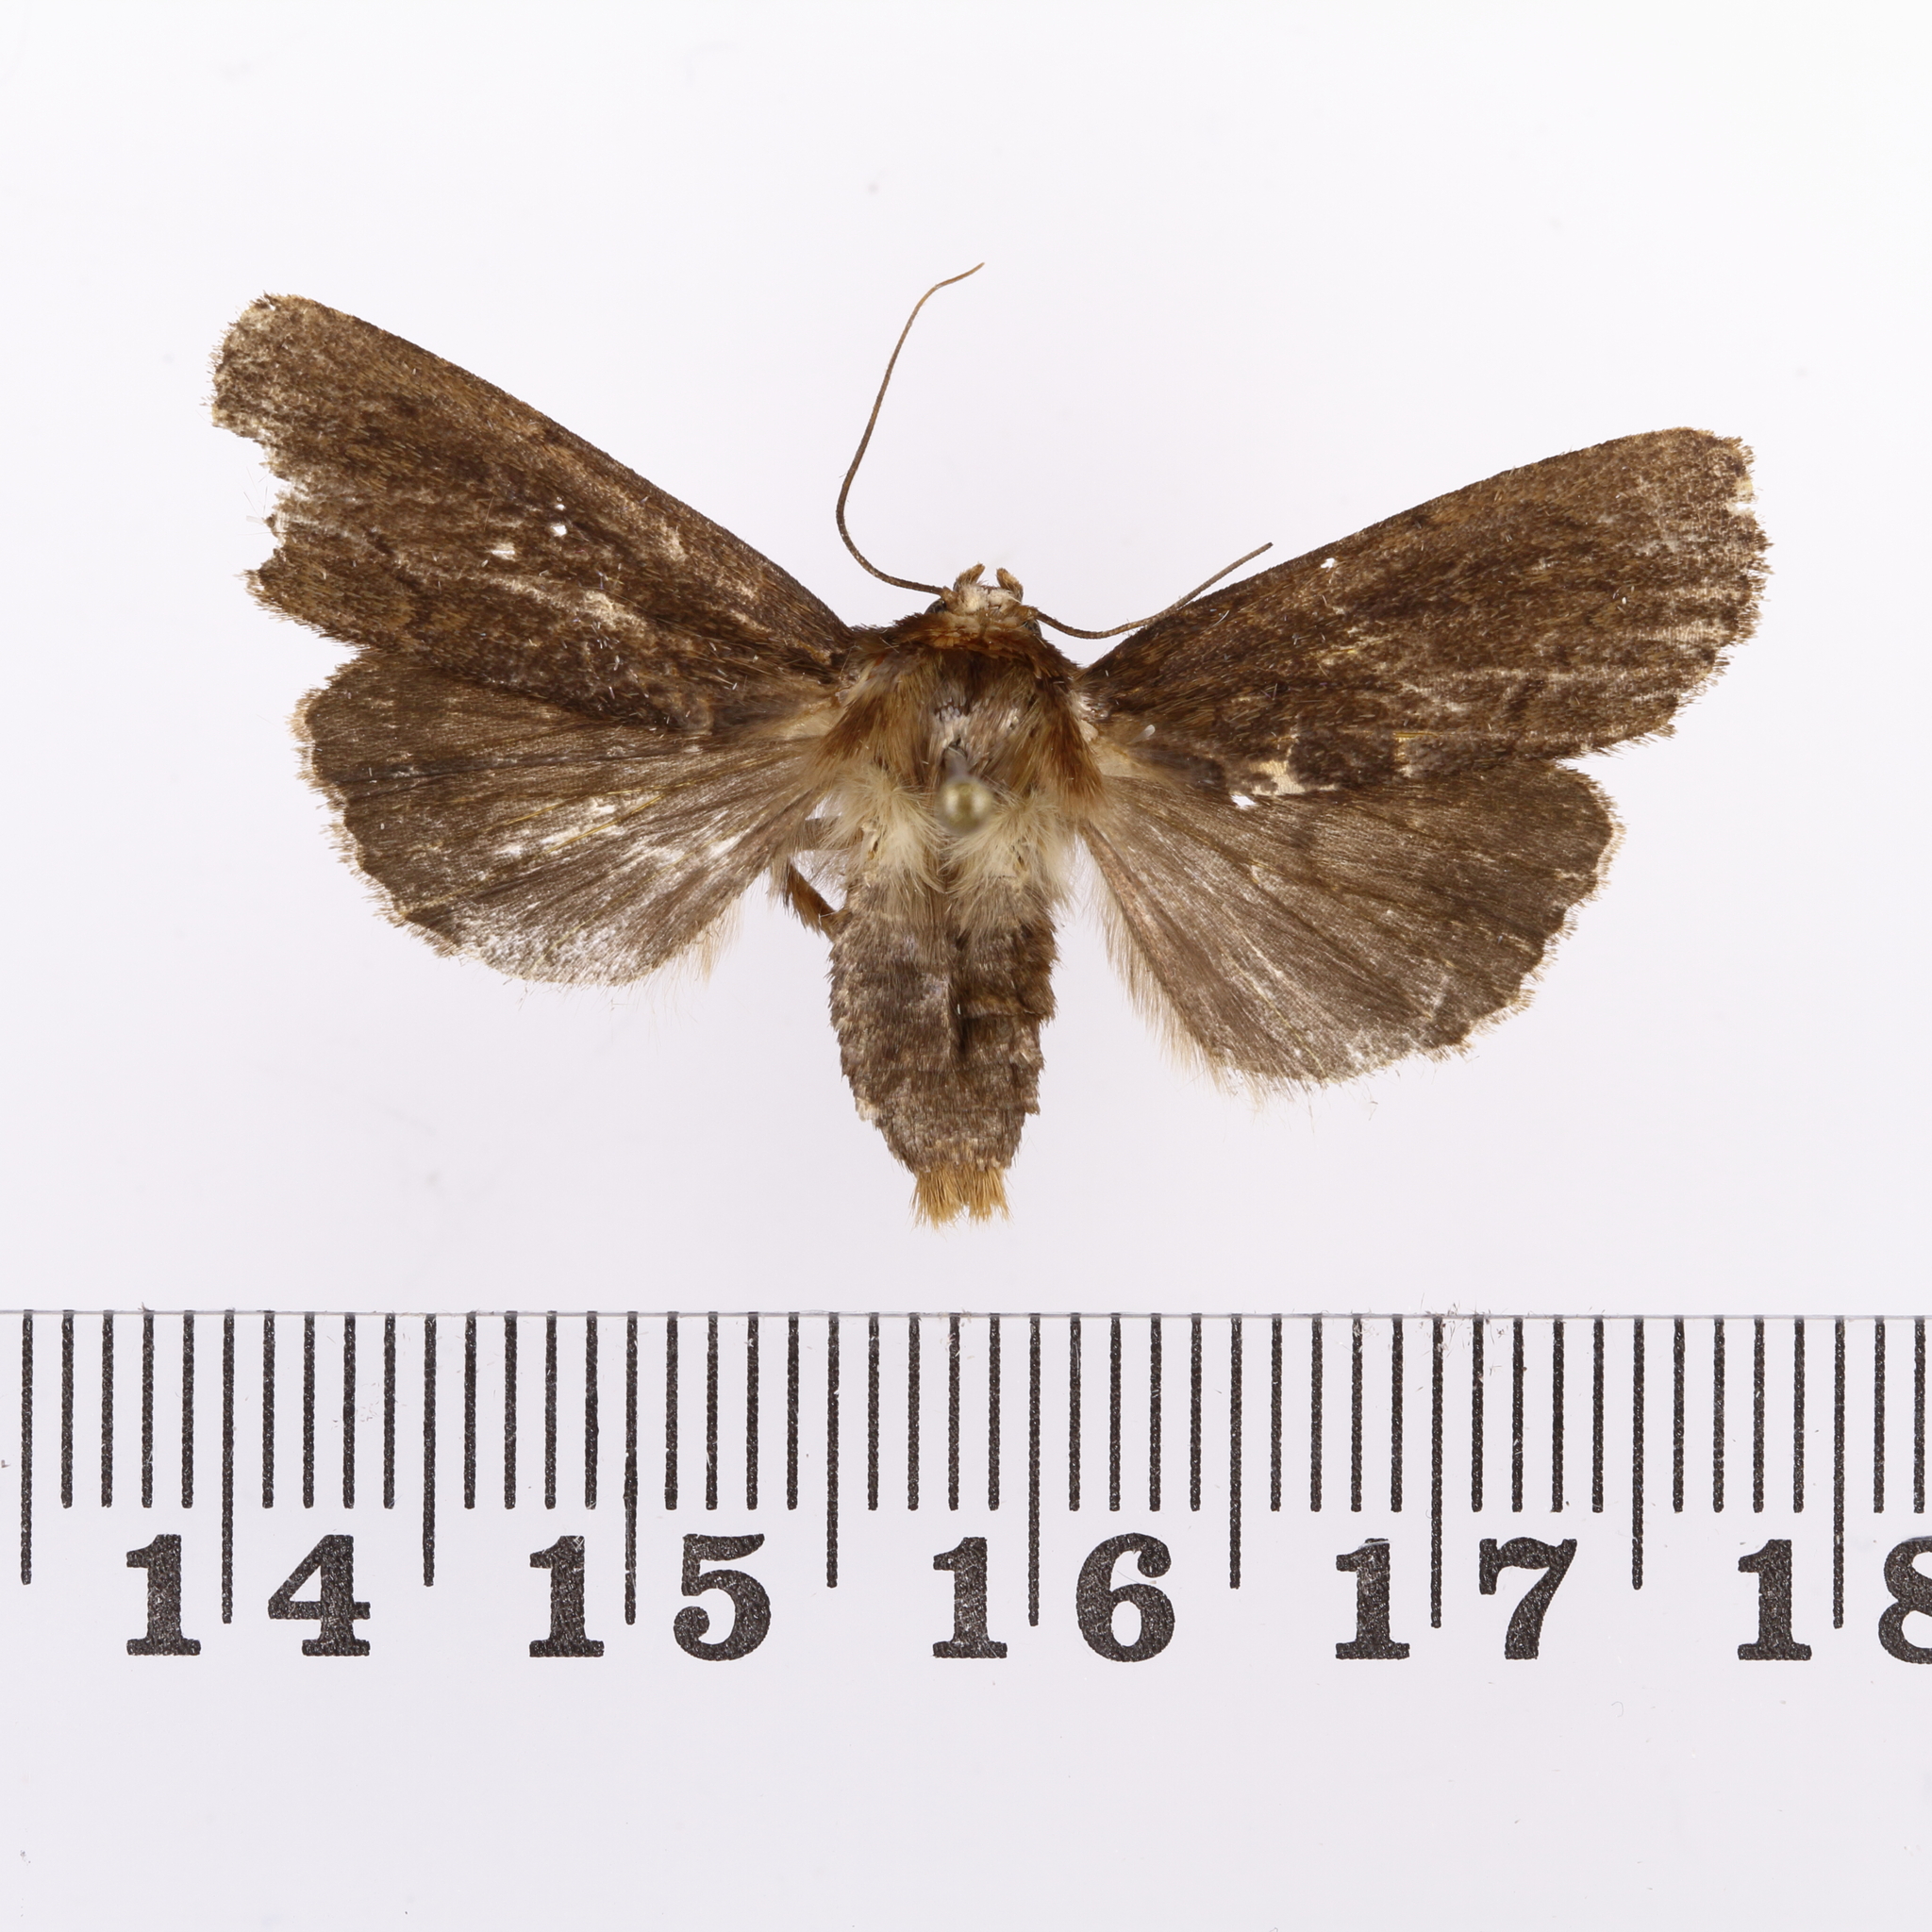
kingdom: Animalia
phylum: Arthropoda
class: Insecta
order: Lepidoptera
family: Noctuidae
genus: Bityla
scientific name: Bityla defigurata
